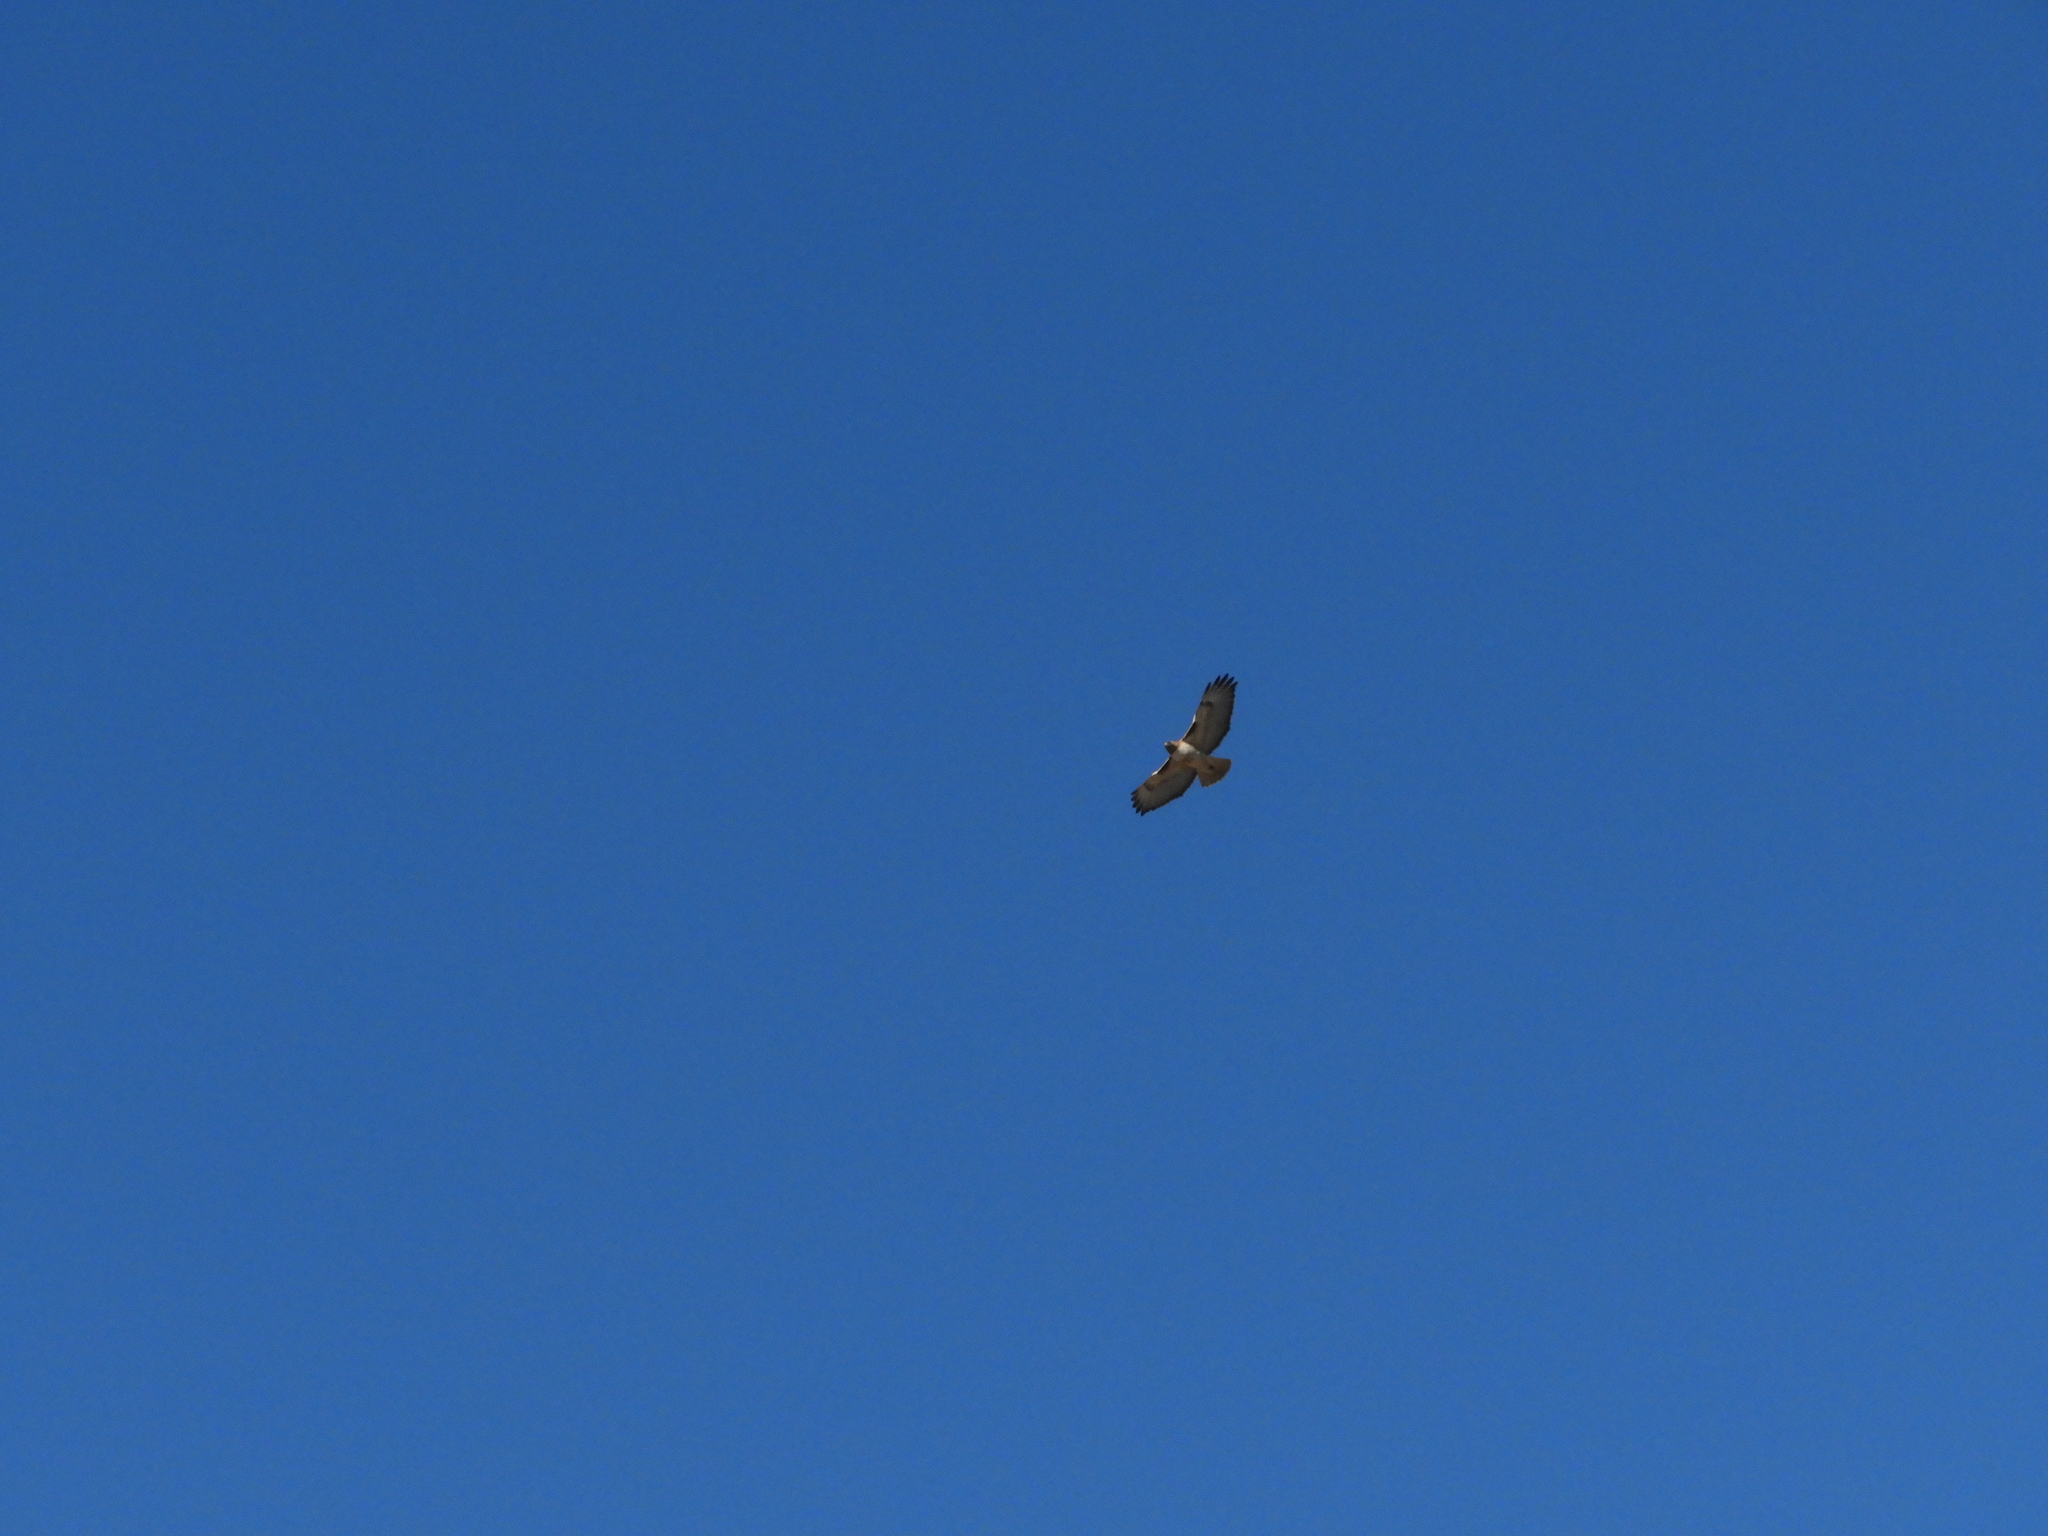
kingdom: Animalia
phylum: Chordata
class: Aves
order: Accipitriformes
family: Accipitridae
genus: Buteo
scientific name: Buteo jamaicensis
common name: Red-tailed hawk
